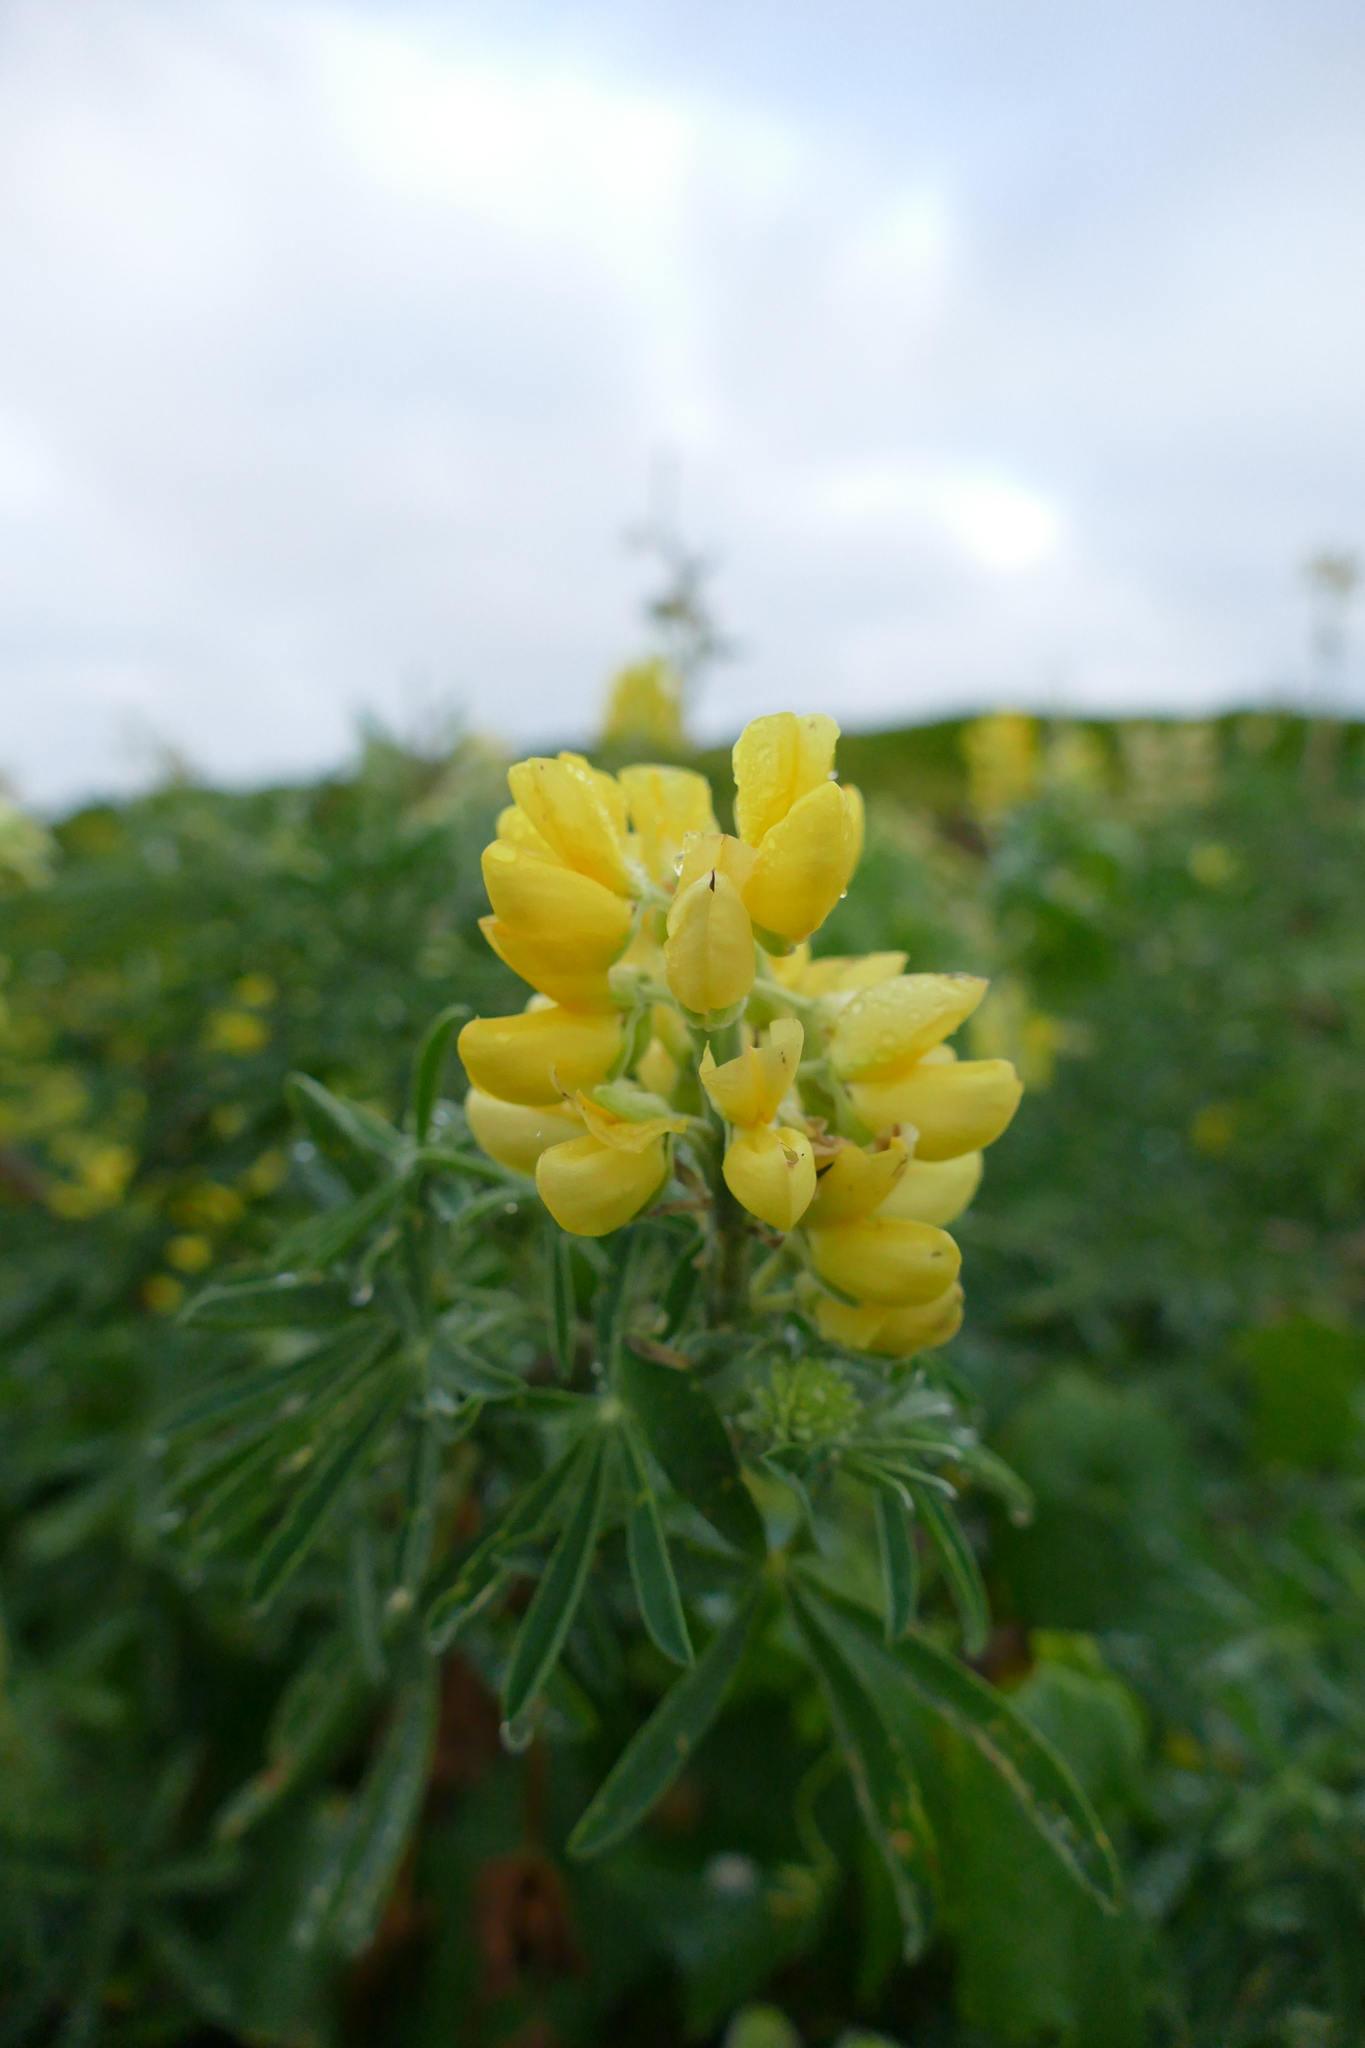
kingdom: Plantae
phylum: Tracheophyta
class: Magnoliopsida
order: Fabales
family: Fabaceae
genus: Lupinus
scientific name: Lupinus arboreus
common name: Yellow bush lupine
